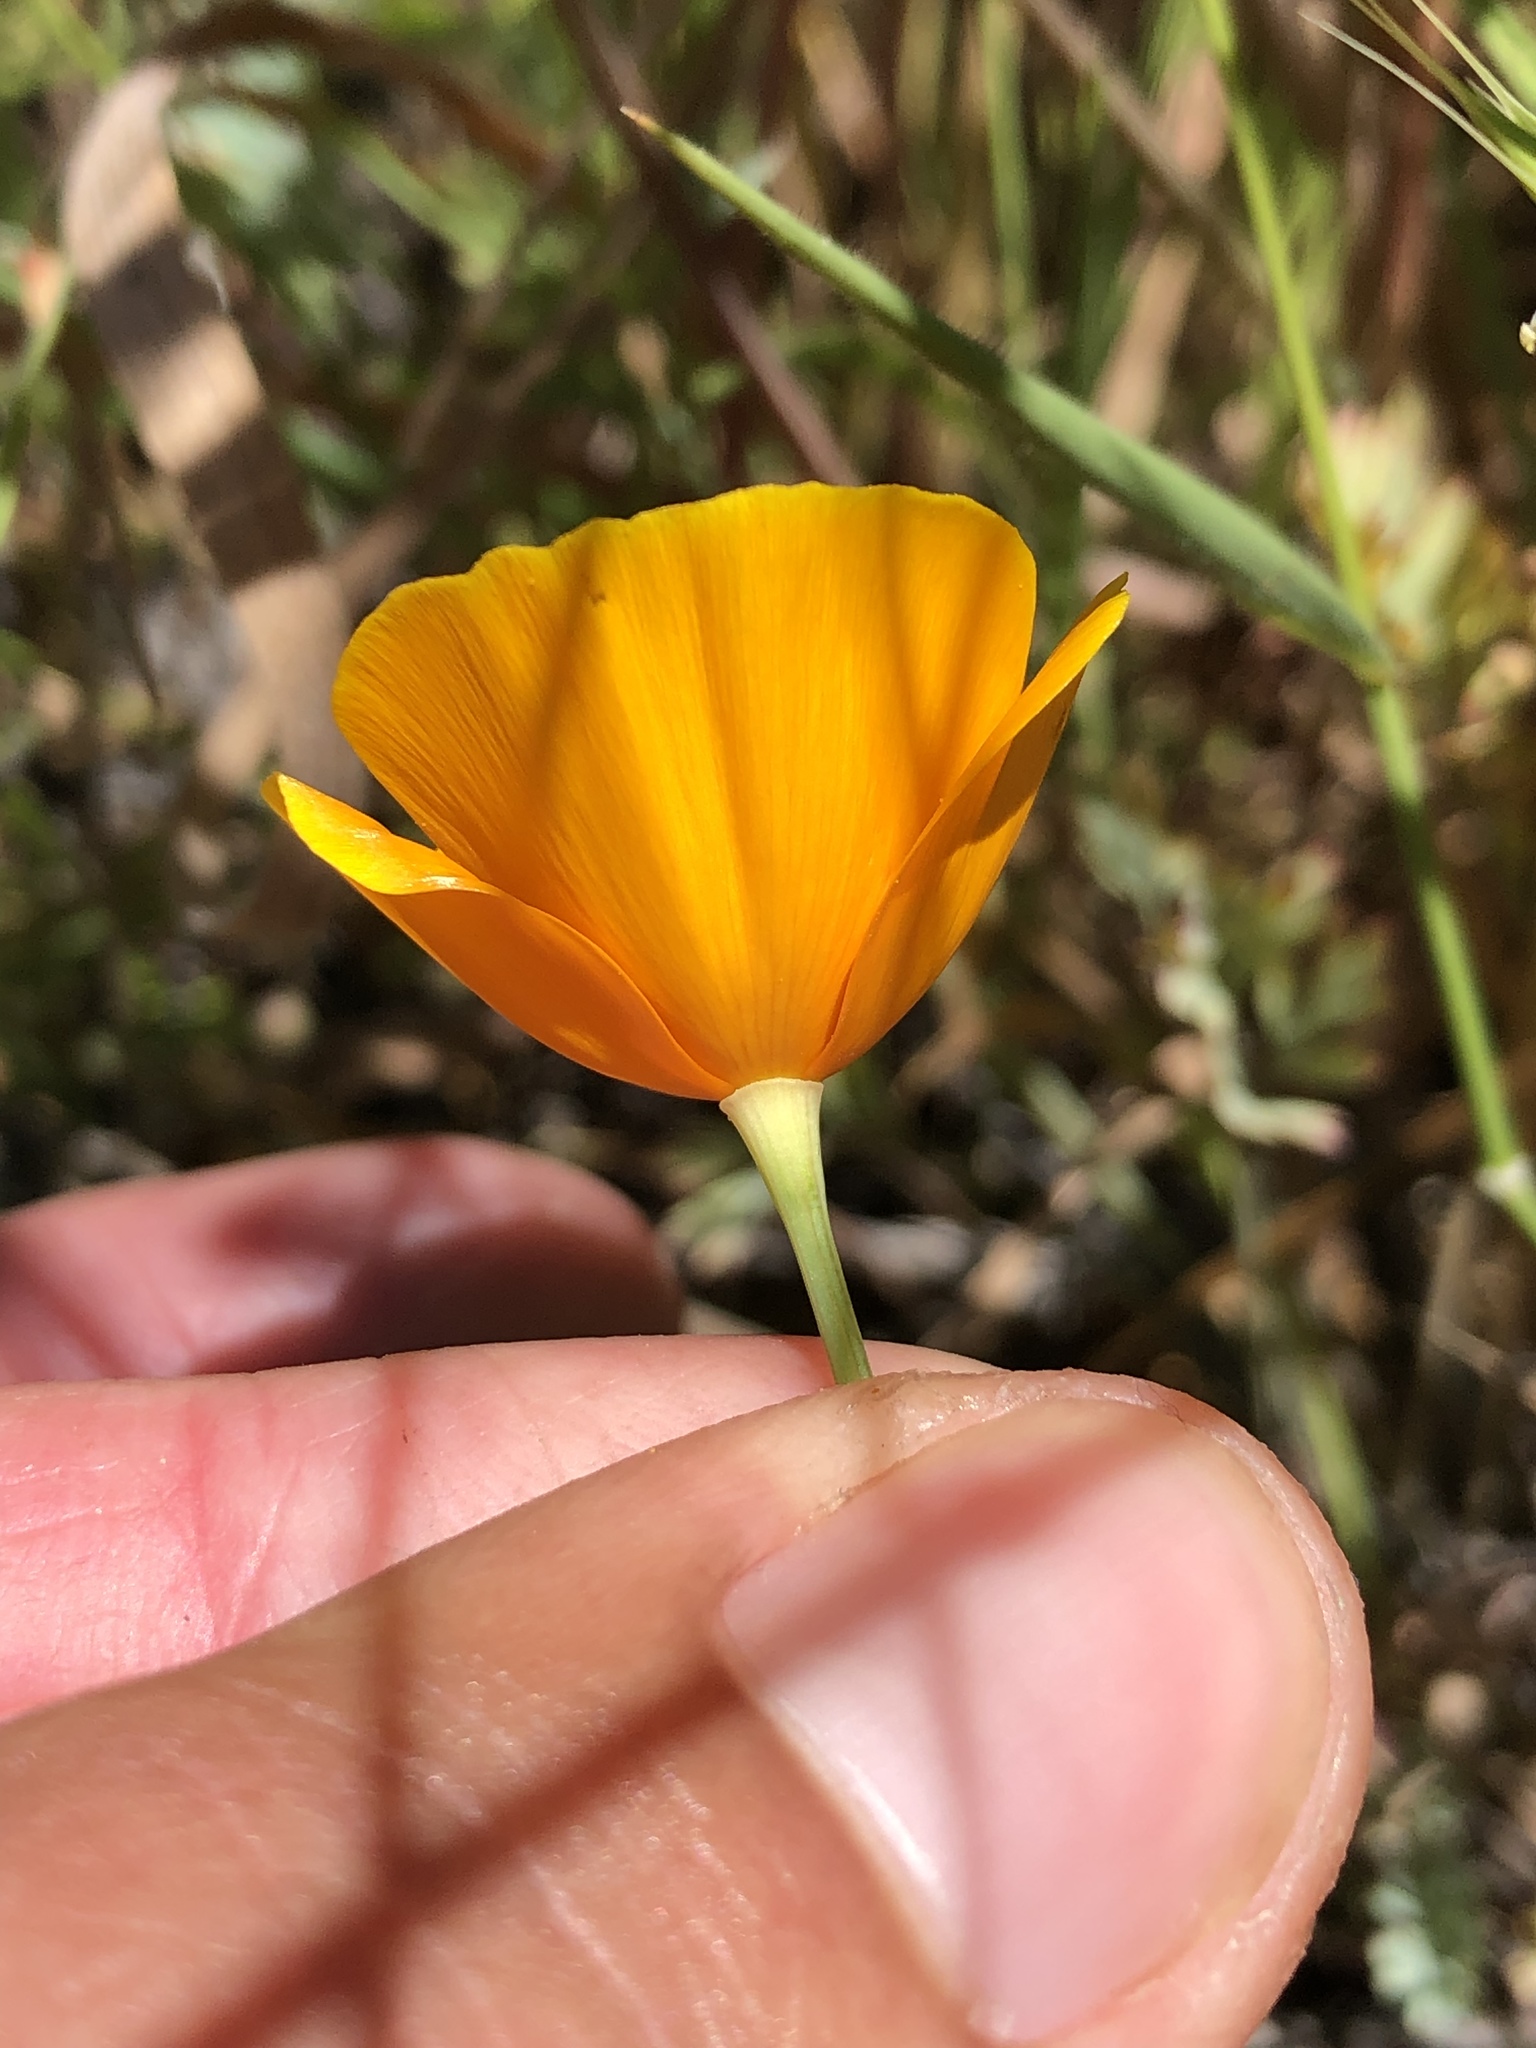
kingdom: Plantae
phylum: Tracheophyta
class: Magnoliopsida
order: Ranunculales
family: Papaveraceae
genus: Eschscholzia
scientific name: Eschscholzia caespitosa
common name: Tufted california-poppy
